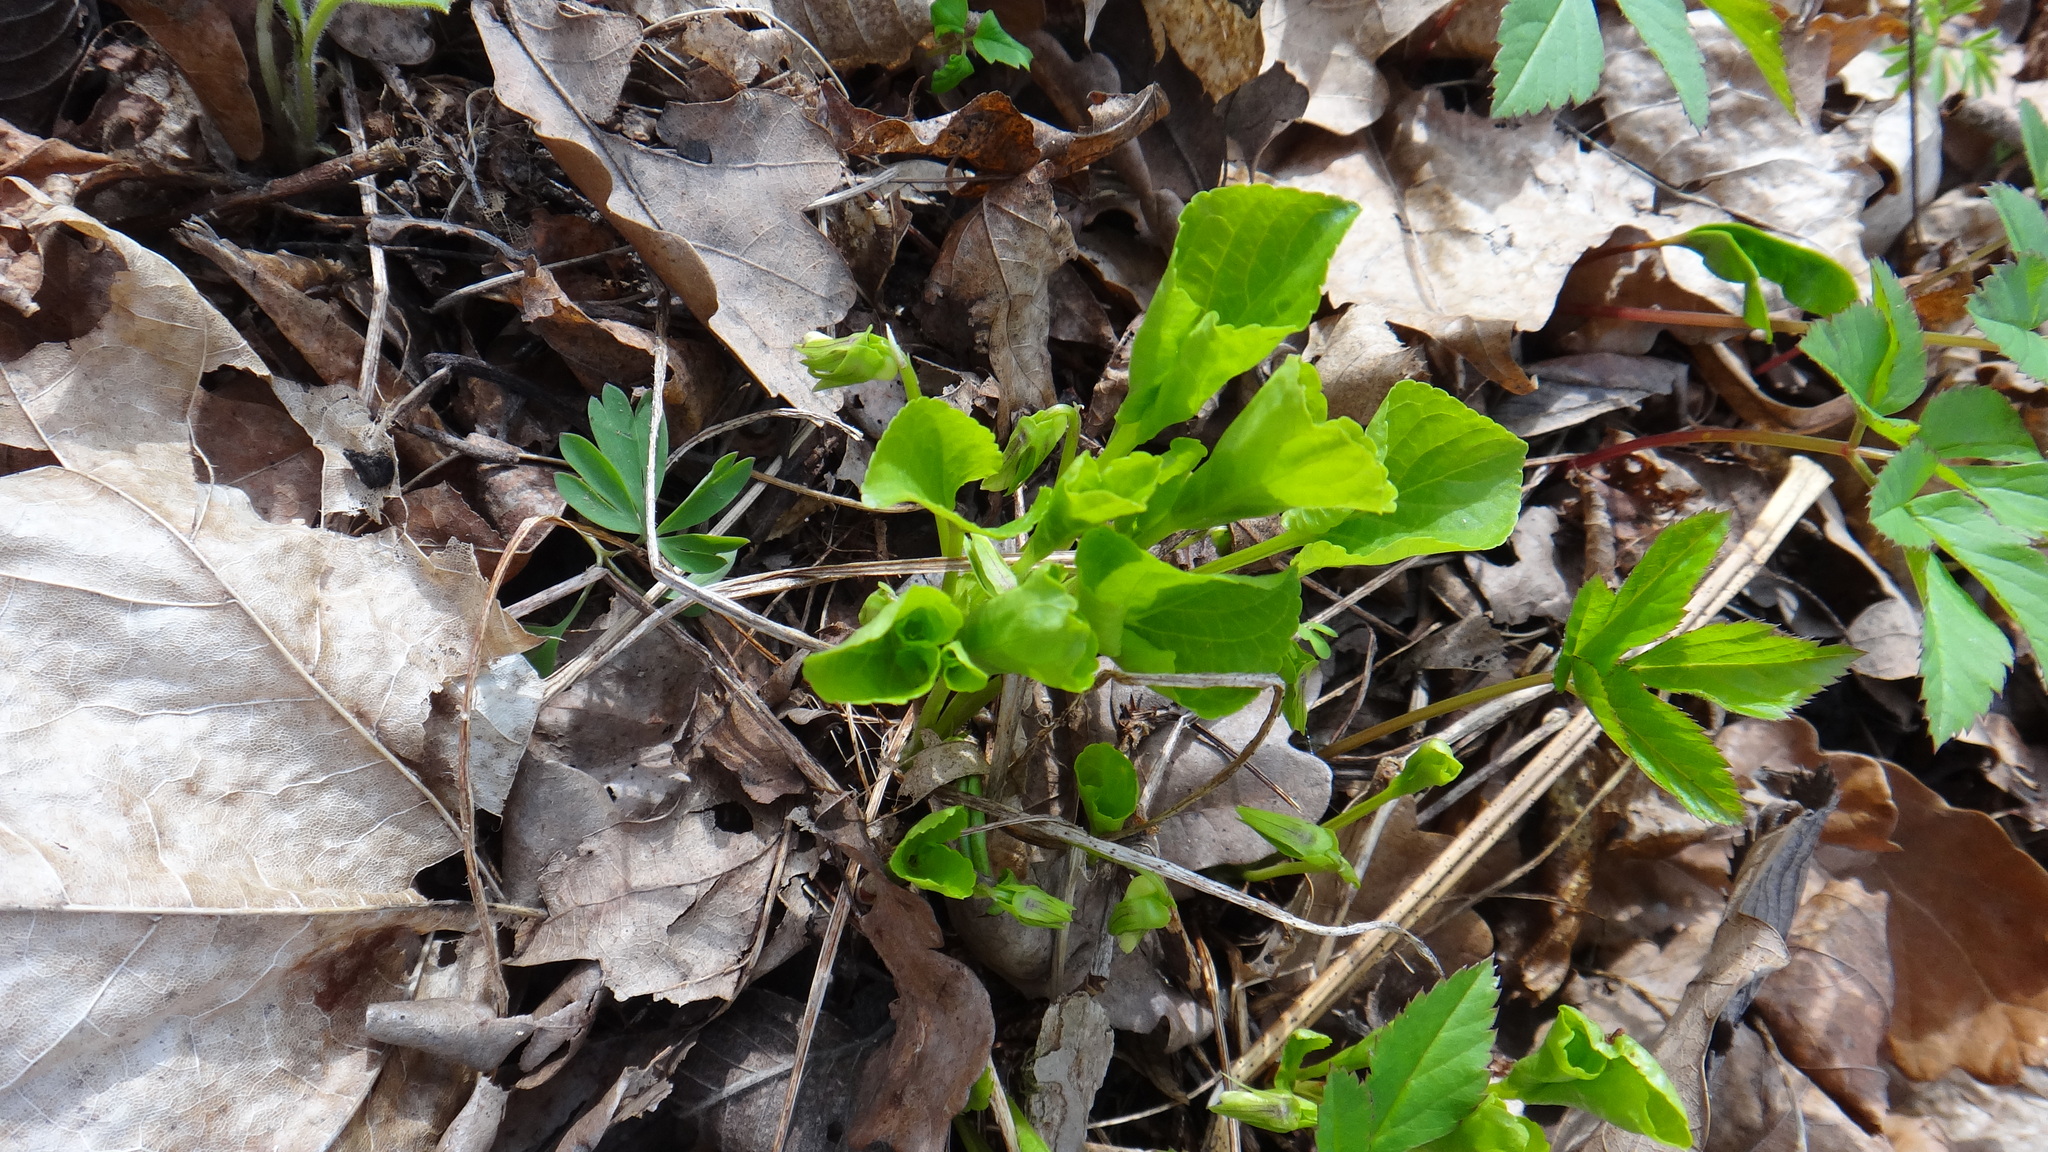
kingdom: Plantae
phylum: Tracheophyta
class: Magnoliopsida
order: Malpighiales
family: Violaceae
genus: Viola
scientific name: Viola mirabilis
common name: Wonder violet
